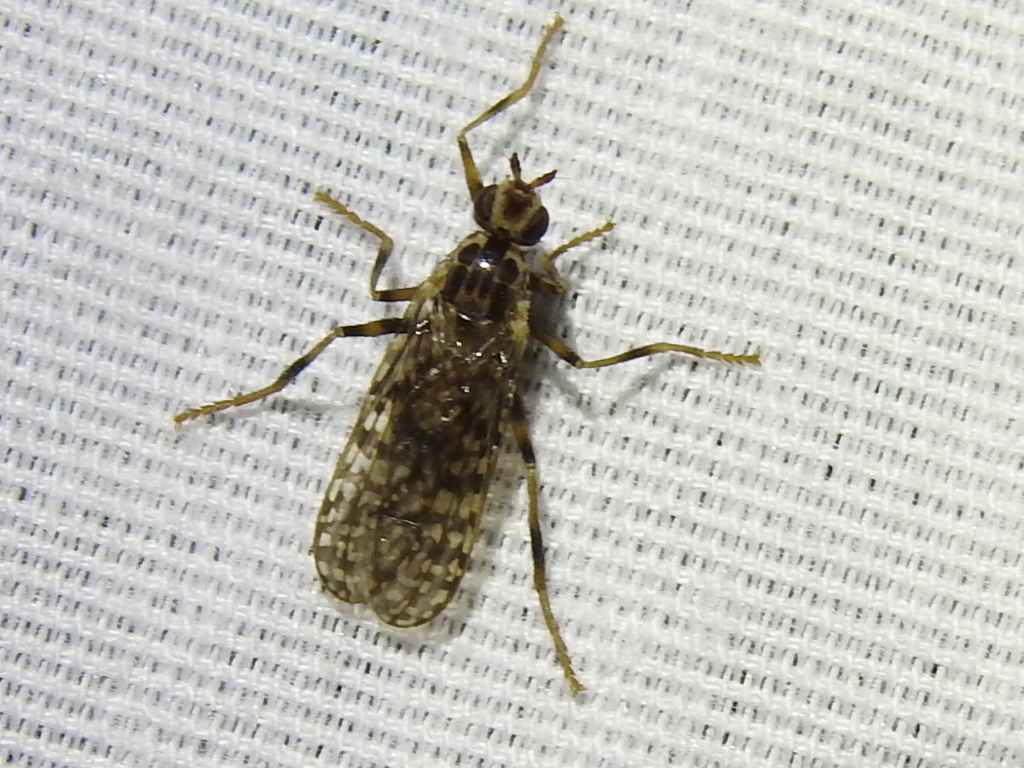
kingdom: Animalia
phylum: Arthropoda
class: Insecta
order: Diptera
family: Pyrgotidae
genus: Boreothrinax
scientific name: Boreothrinax
